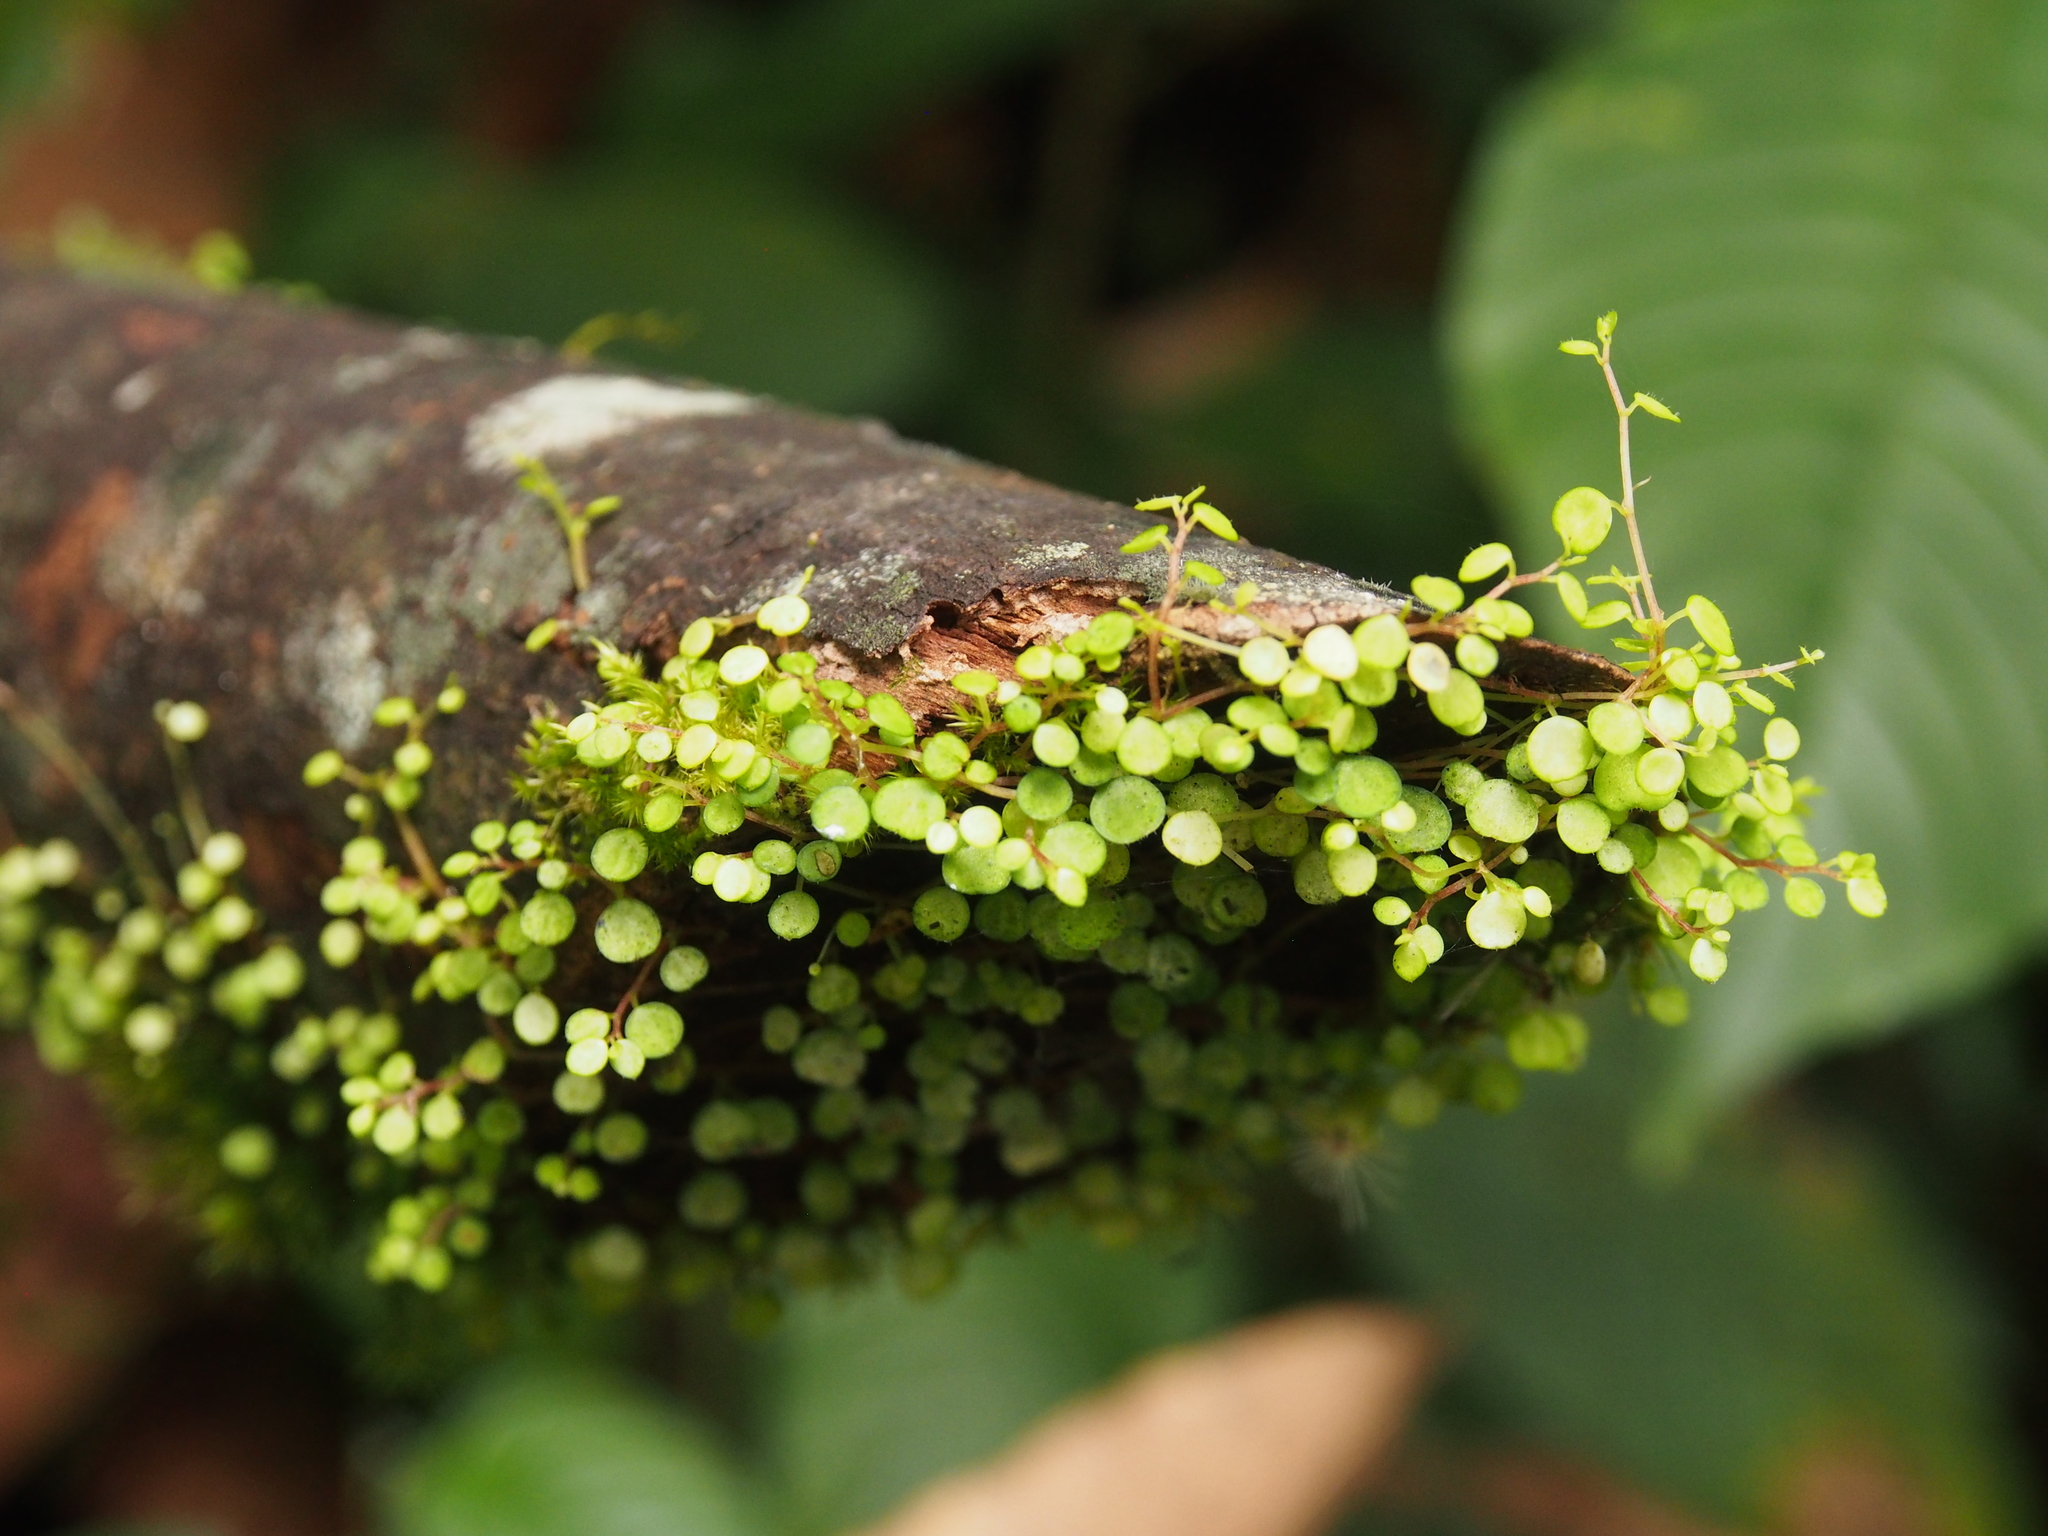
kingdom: Plantae
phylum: Tracheophyta
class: Magnoliopsida
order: Piperales
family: Piperaceae
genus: Peperomia
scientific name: Peperomia emarginella
